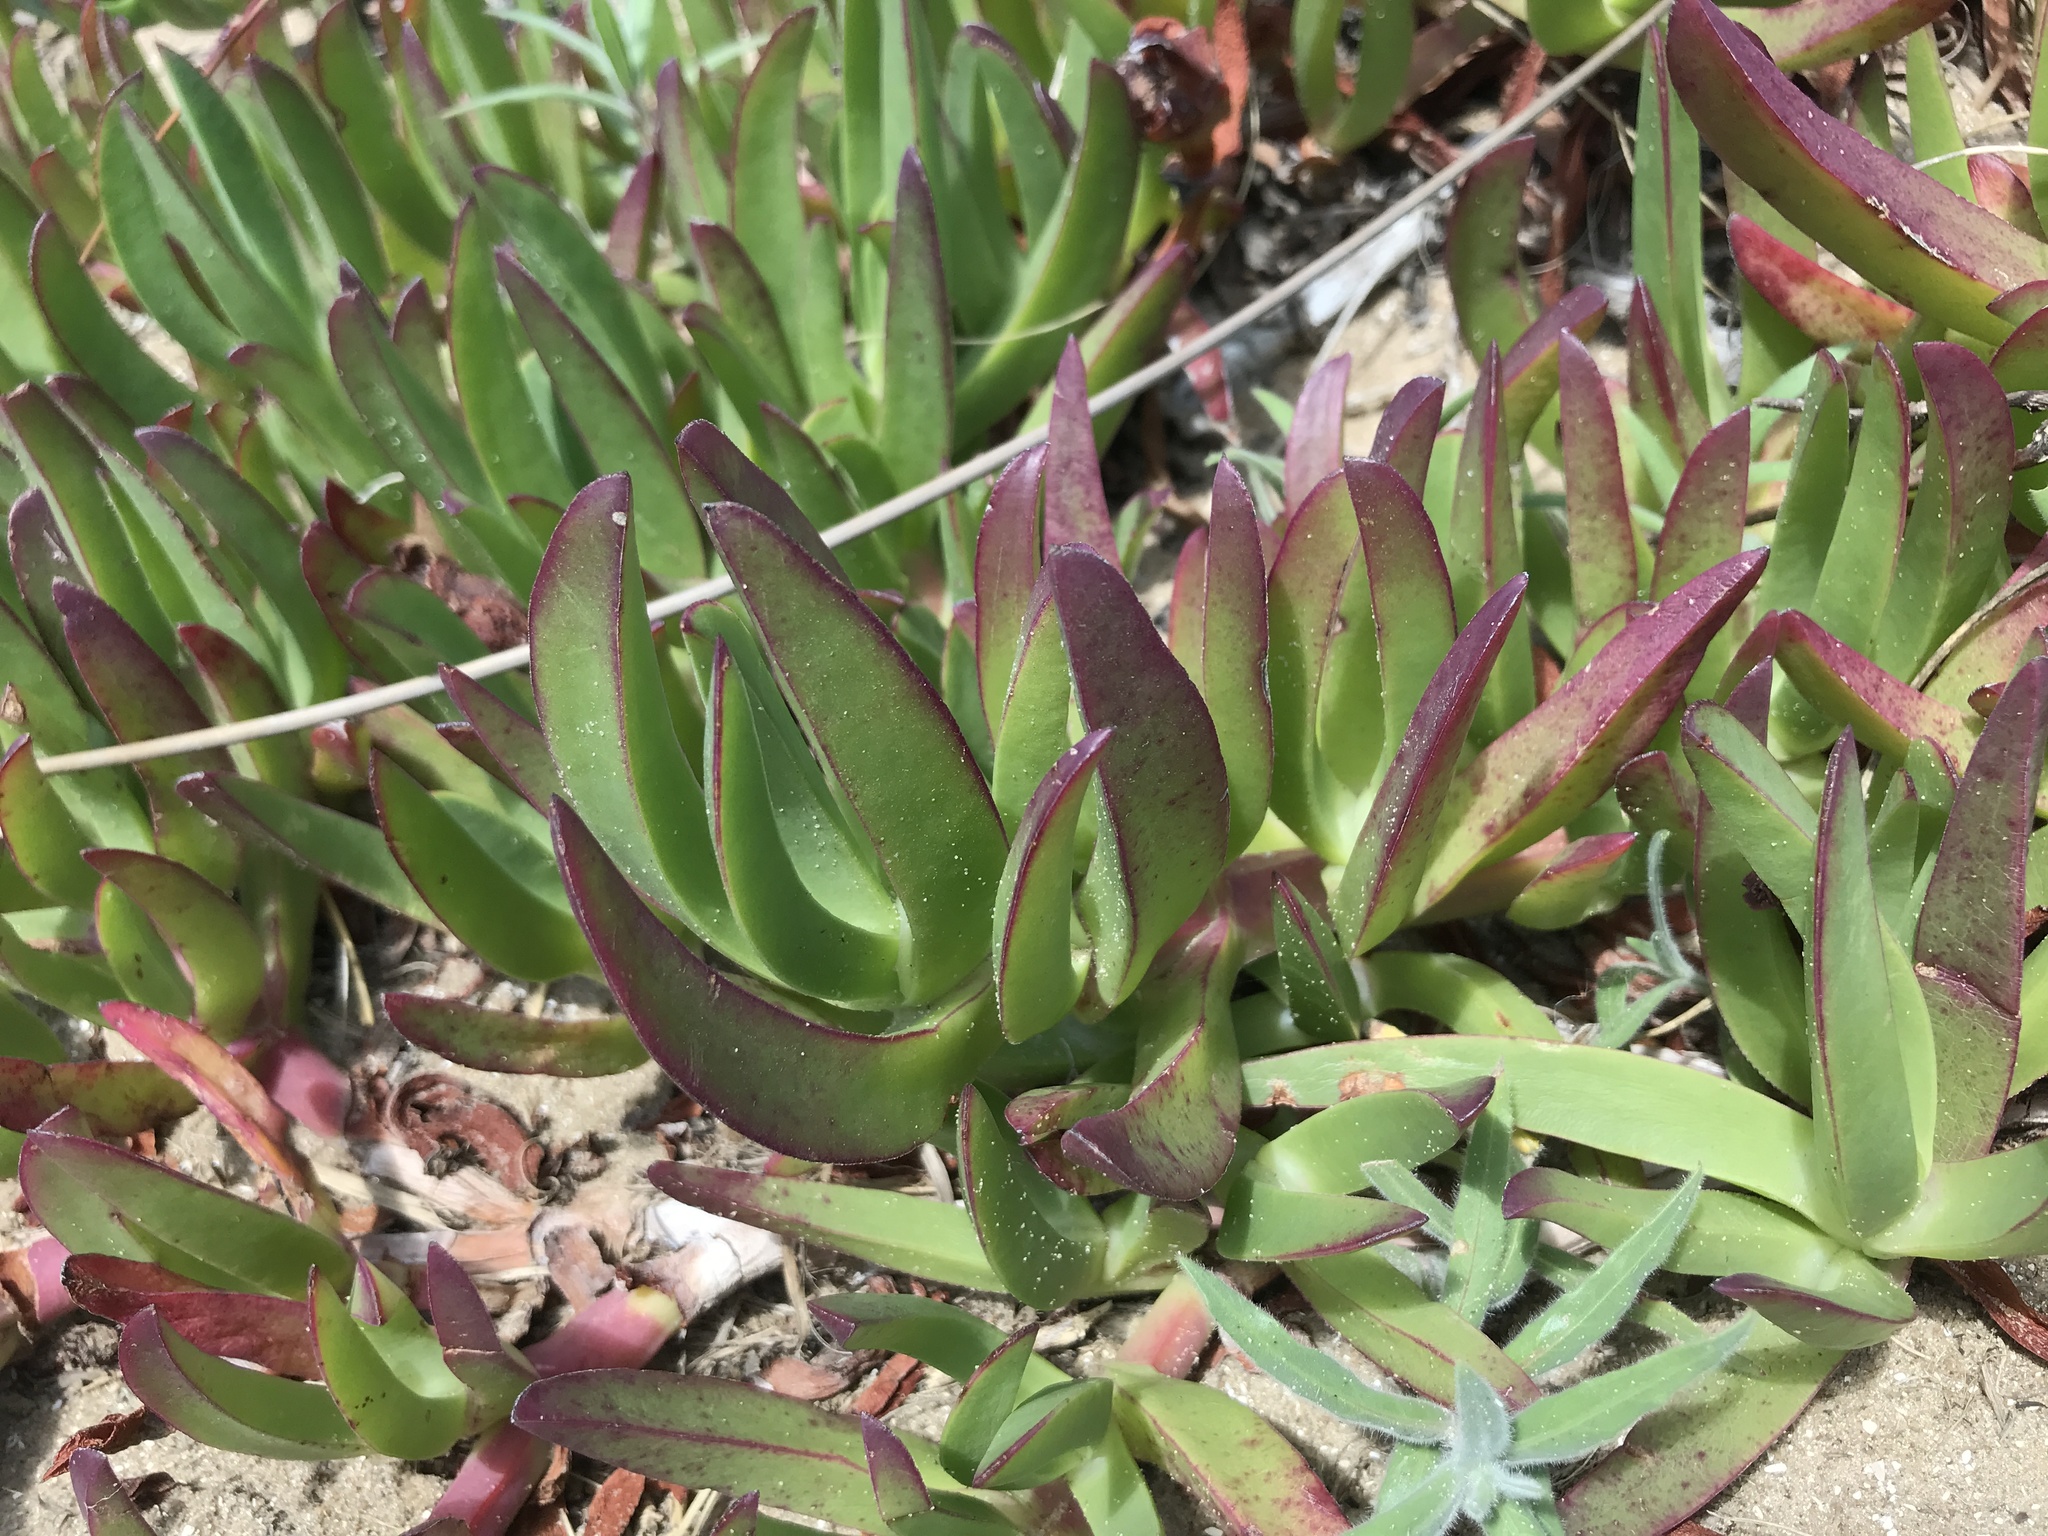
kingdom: Plantae
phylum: Tracheophyta
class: Magnoliopsida
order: Caryophyllales
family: Aizoaceae
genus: Carpobrotus
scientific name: Carpobrotus edulis
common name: Hottentot-fig
